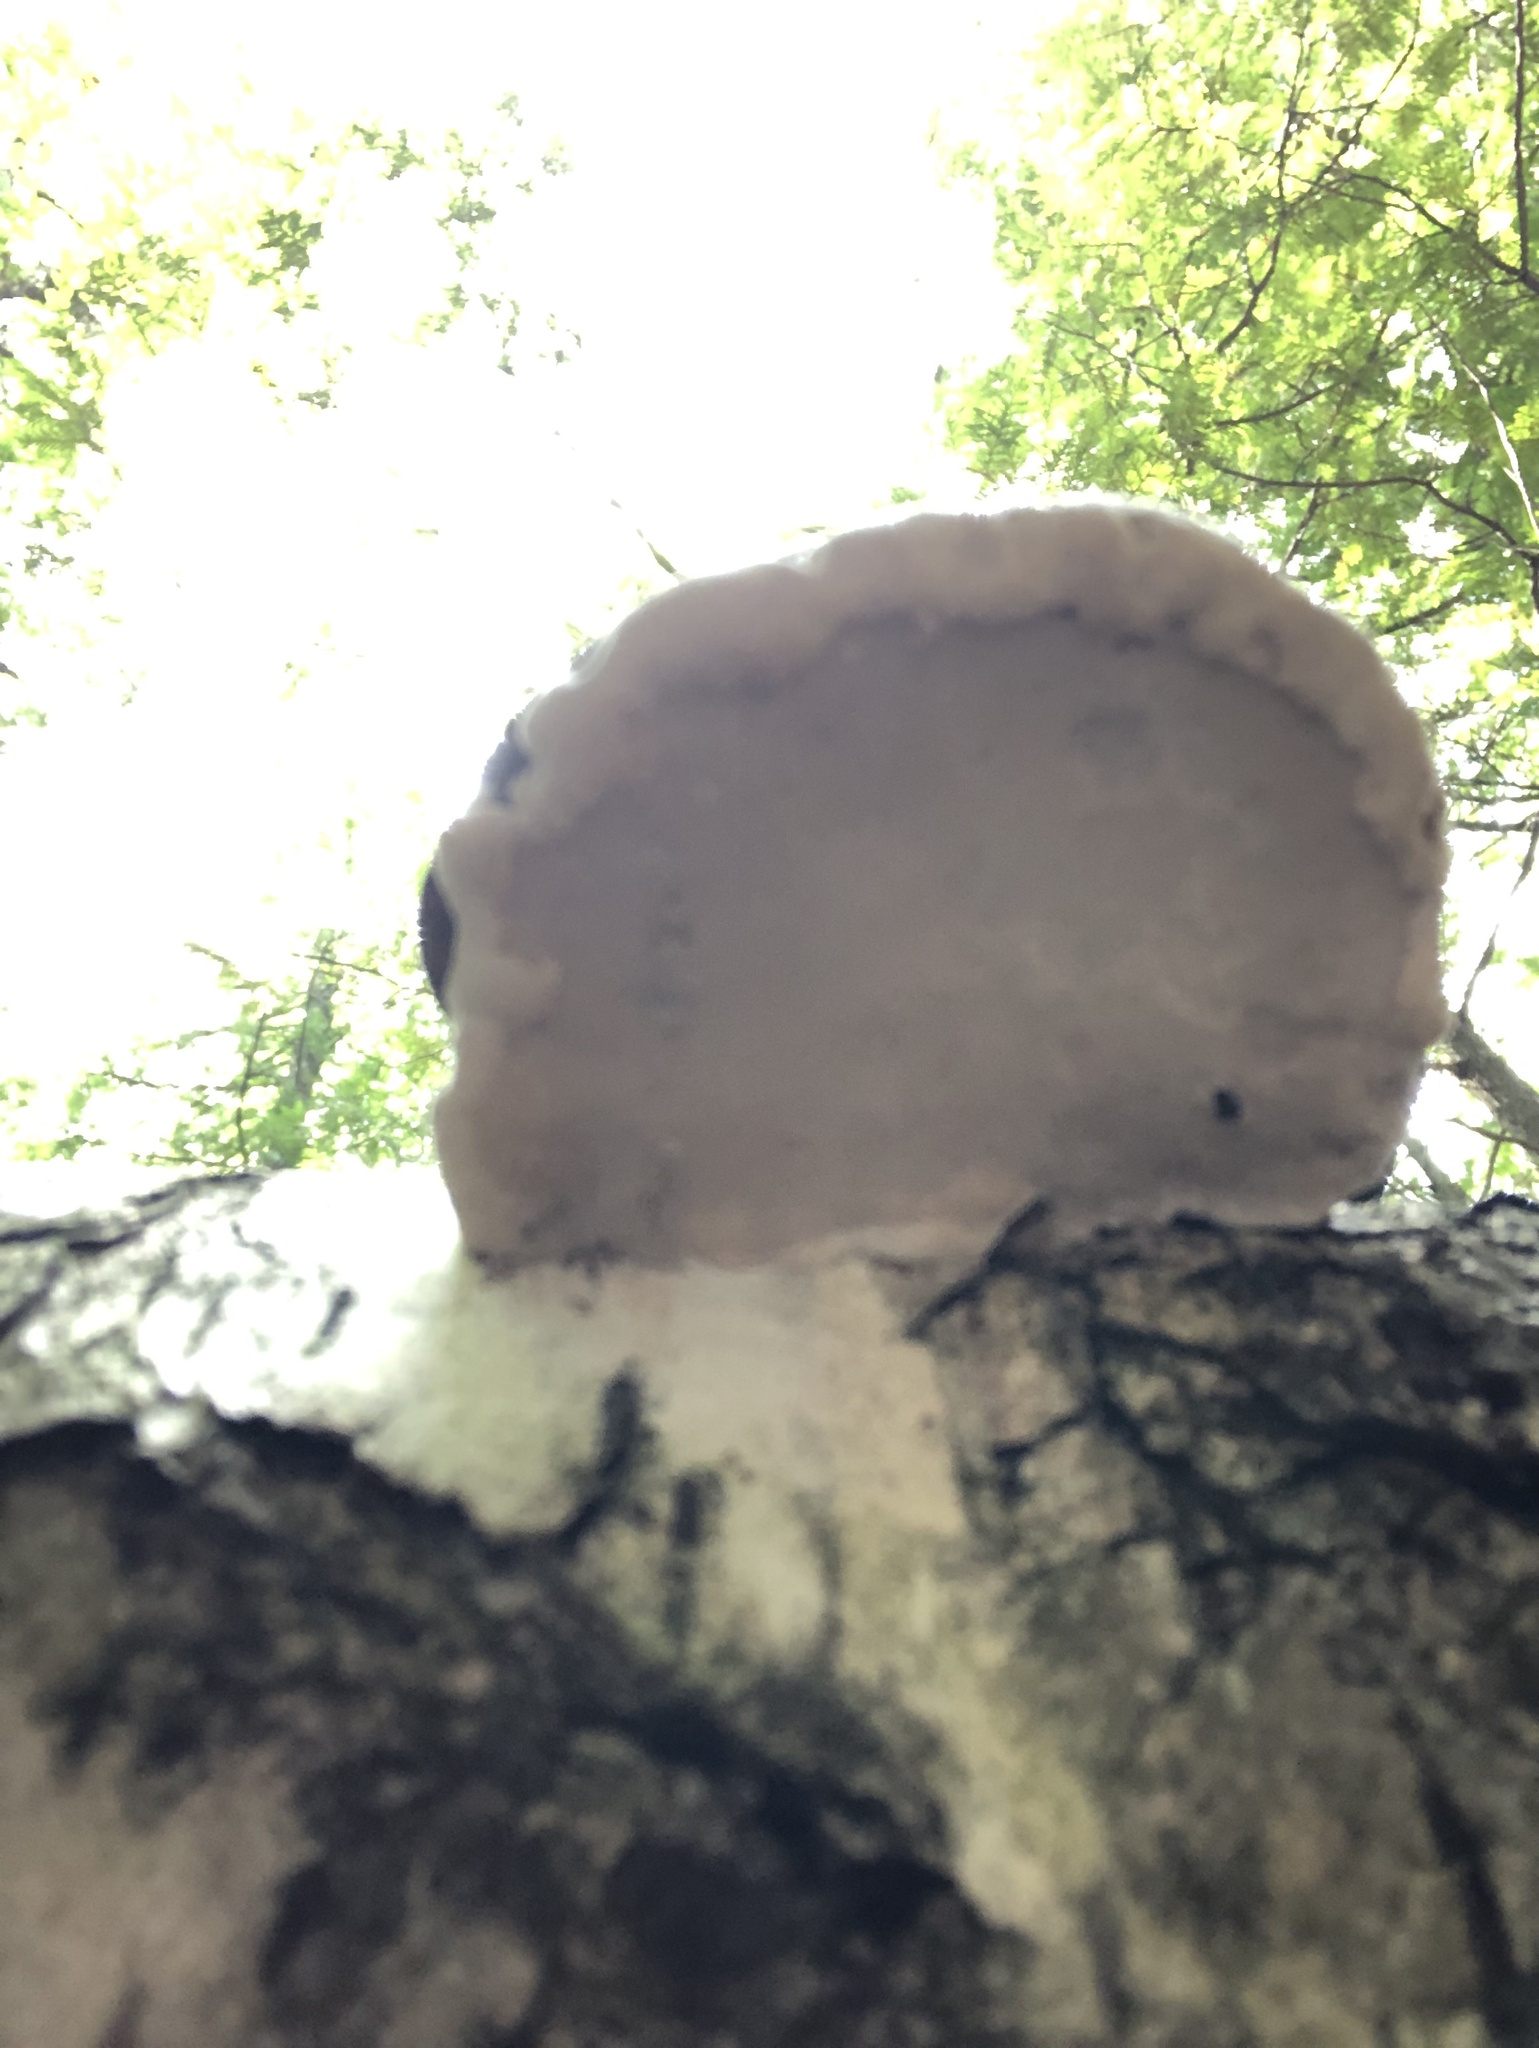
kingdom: Fungi
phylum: Basidiomycota
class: Agaricomycetes
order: Polyporales
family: Polyporaceae
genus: Fomes
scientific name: Fomes fomentarius
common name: Hoof fungus
